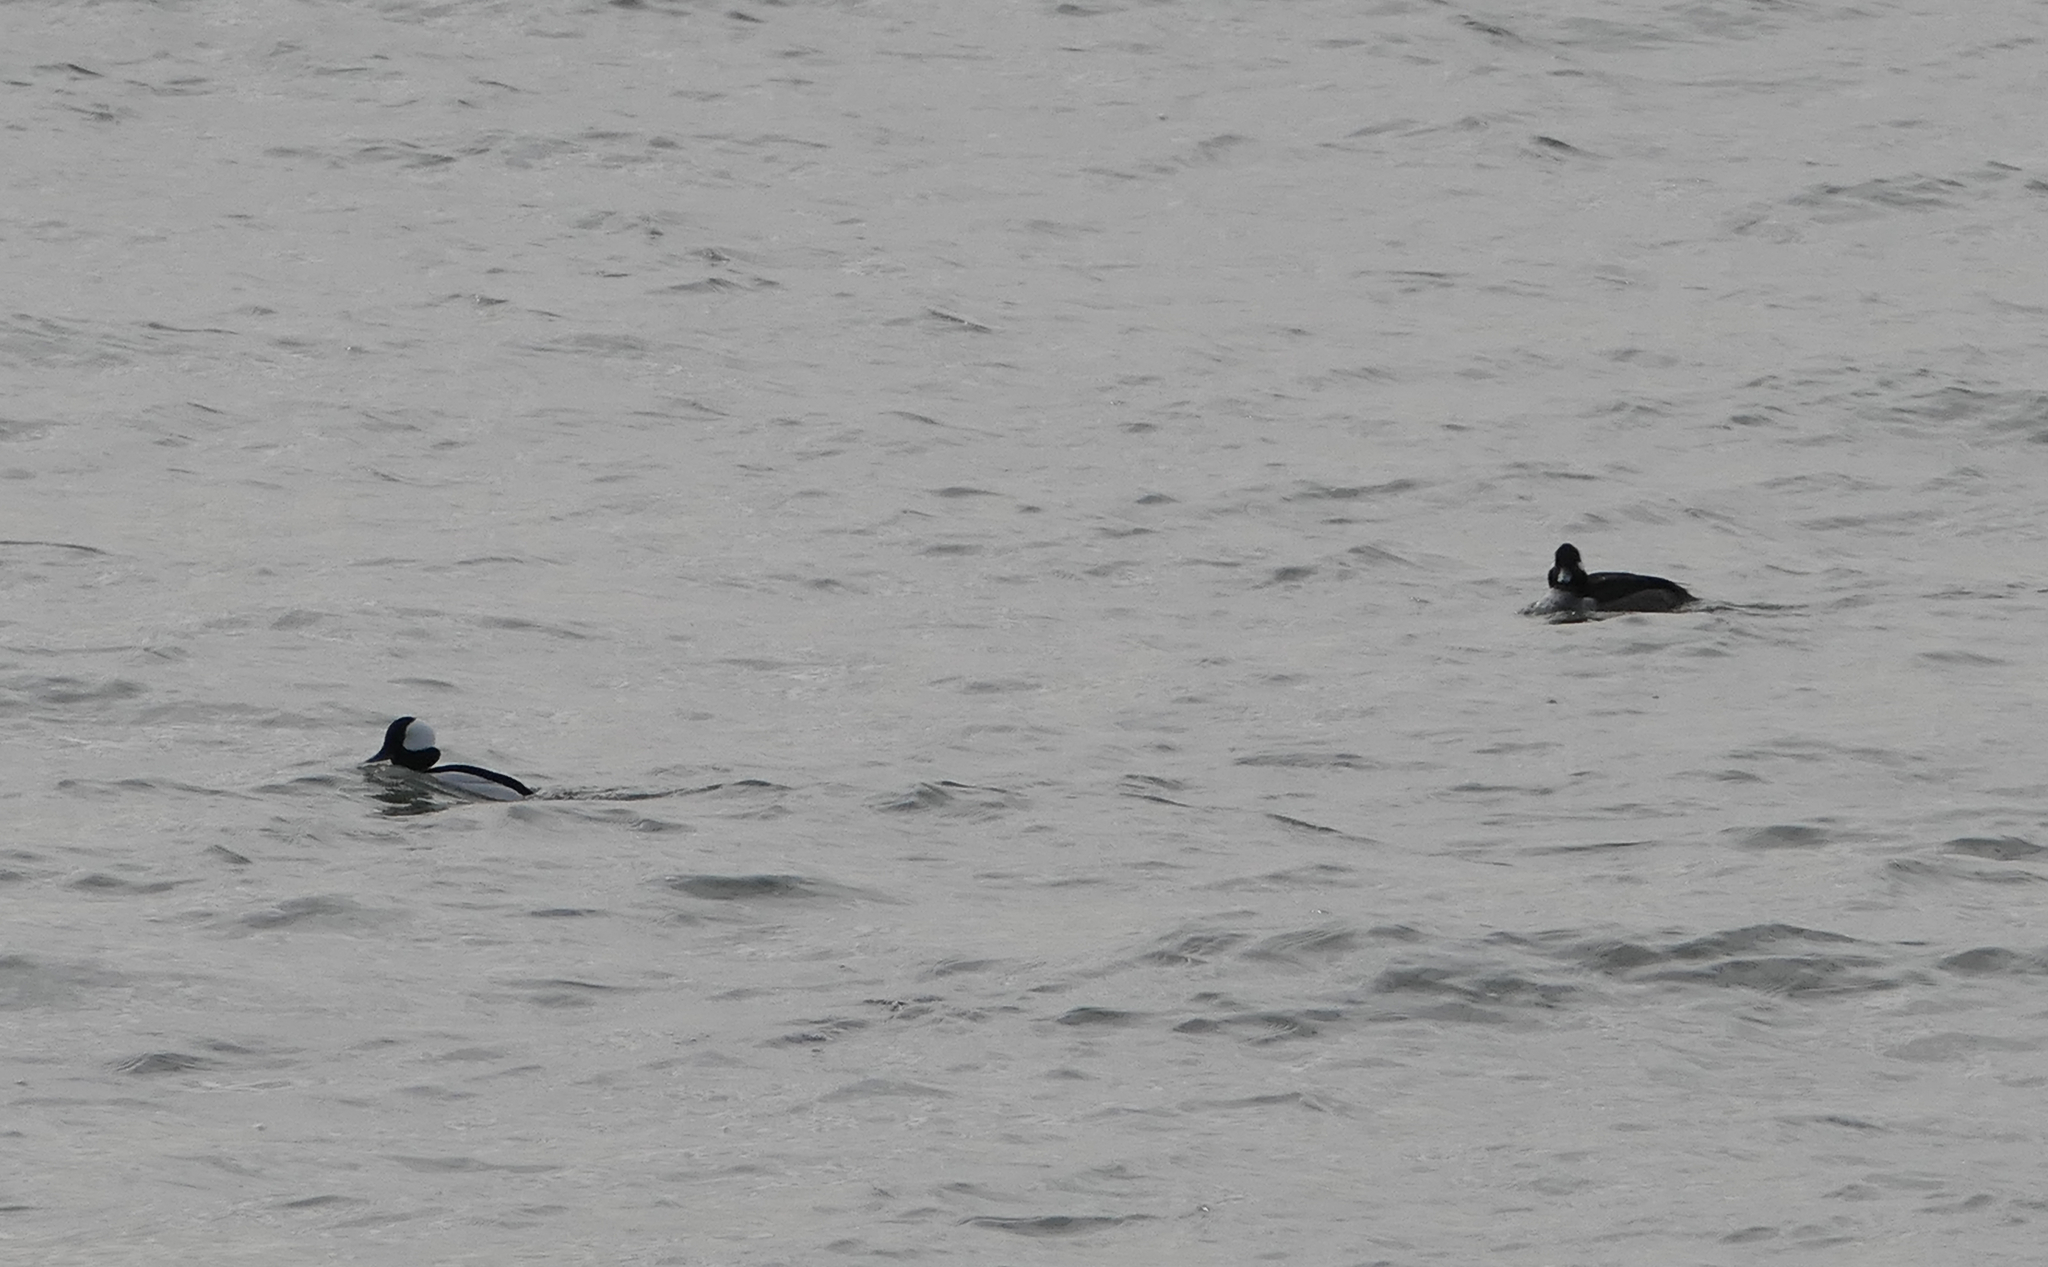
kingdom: Animalia
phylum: Chordata
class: Aves
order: Anseriformes
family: Anatidae
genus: Bucephala
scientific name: Bucephala albeola
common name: Bufflehead
